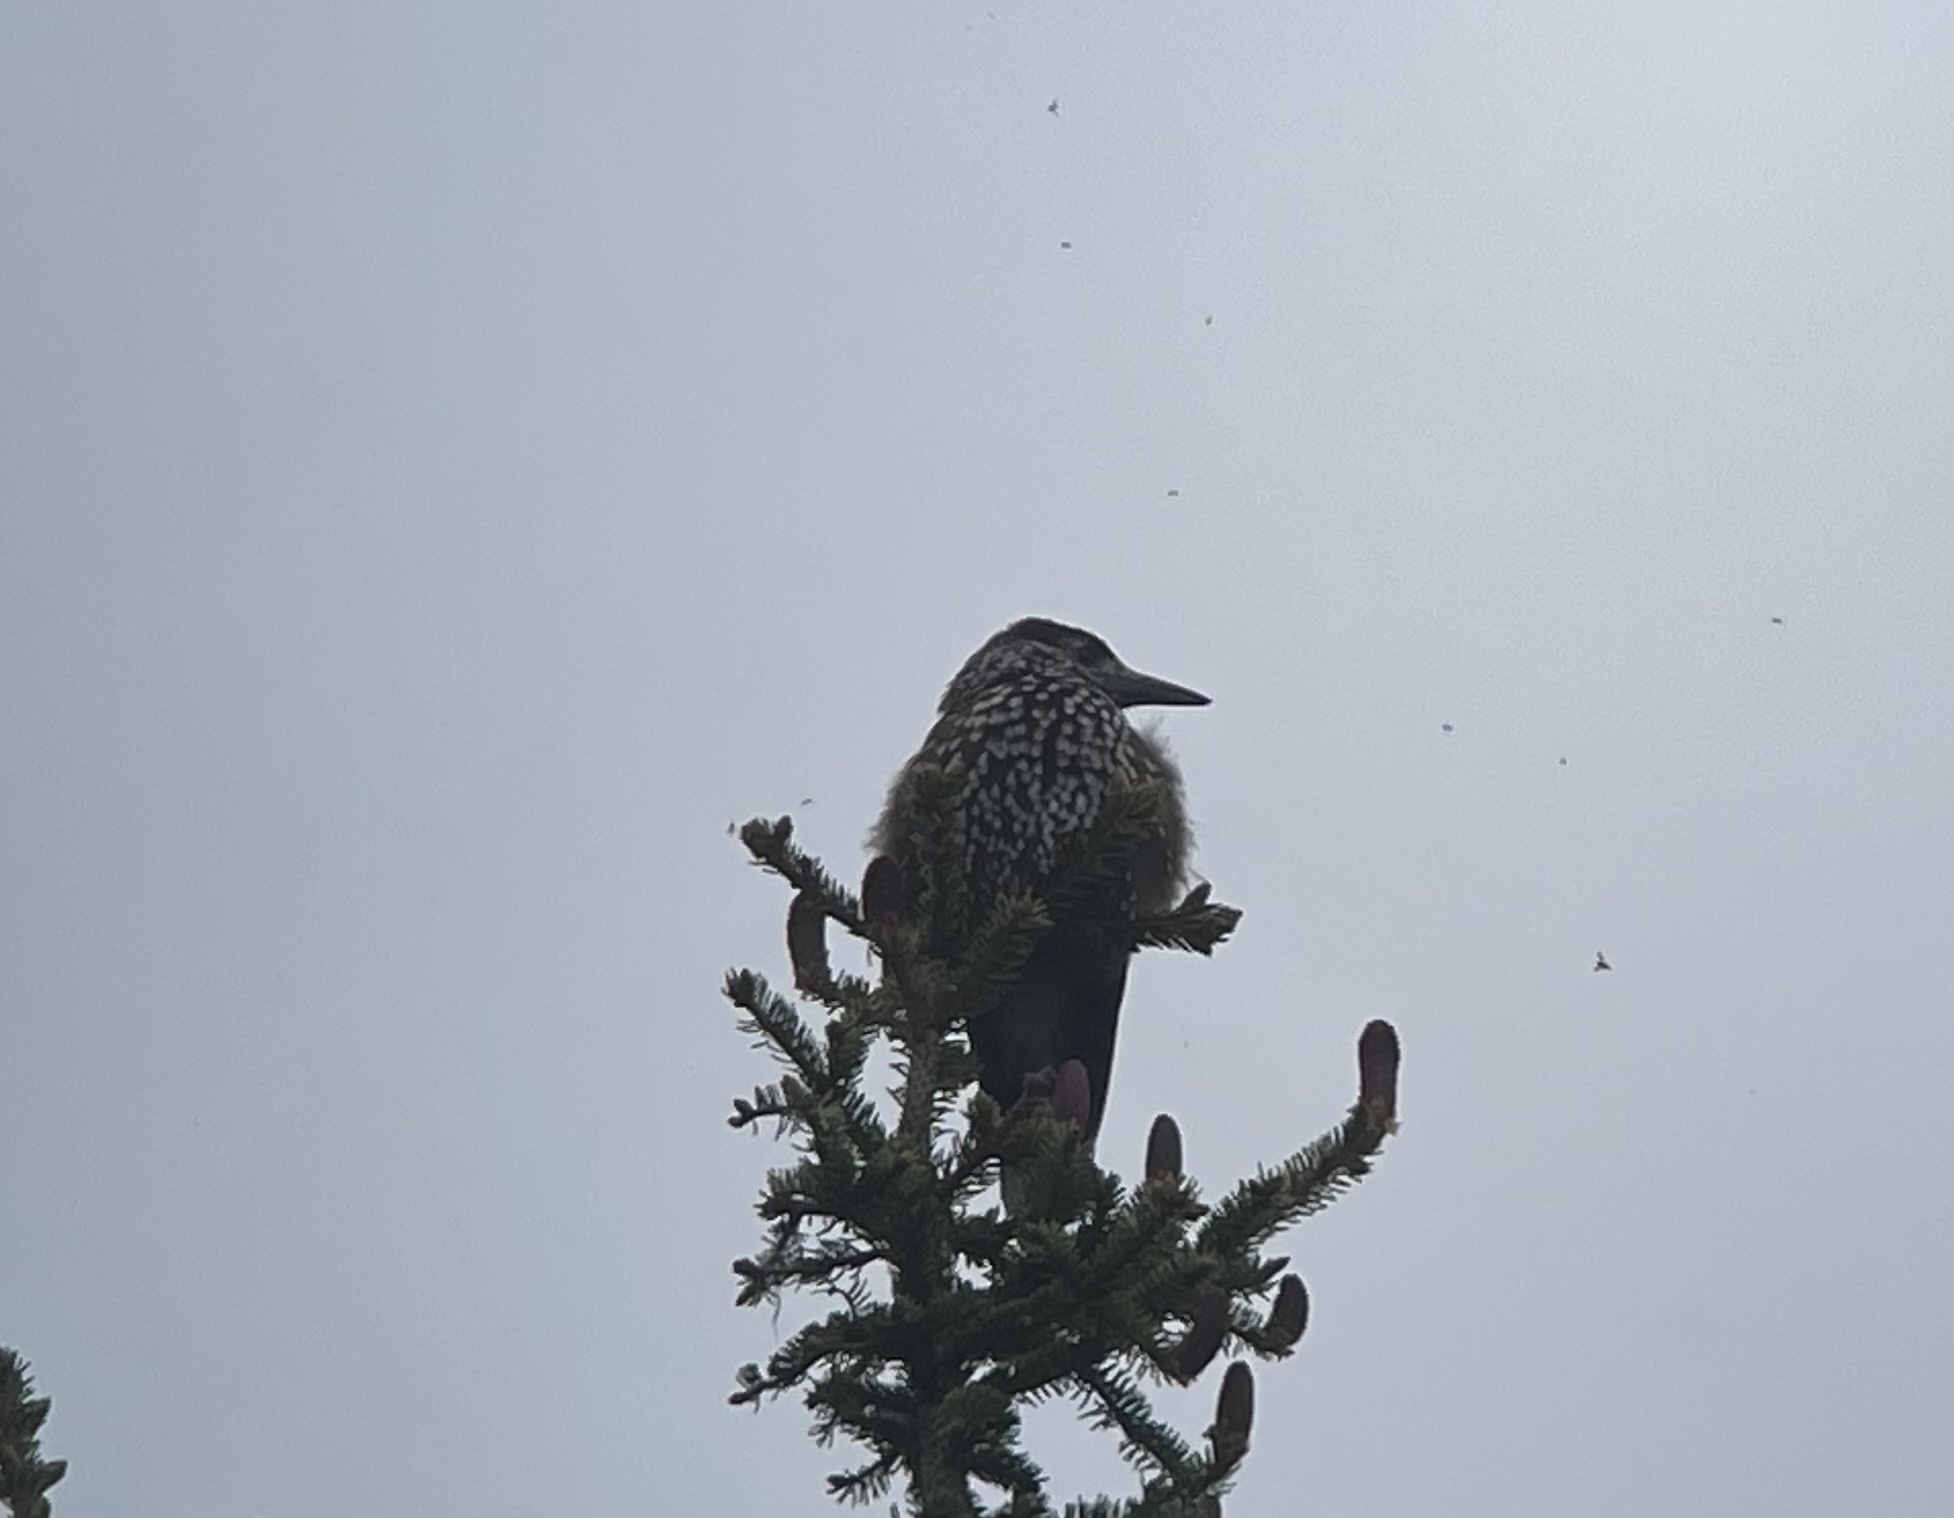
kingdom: Animalia
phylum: Chordata
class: Aves
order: Passeriformes
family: Corvidae
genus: Nucifraga
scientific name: Nucifraga caryocatactes
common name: Spotted nutcracker
